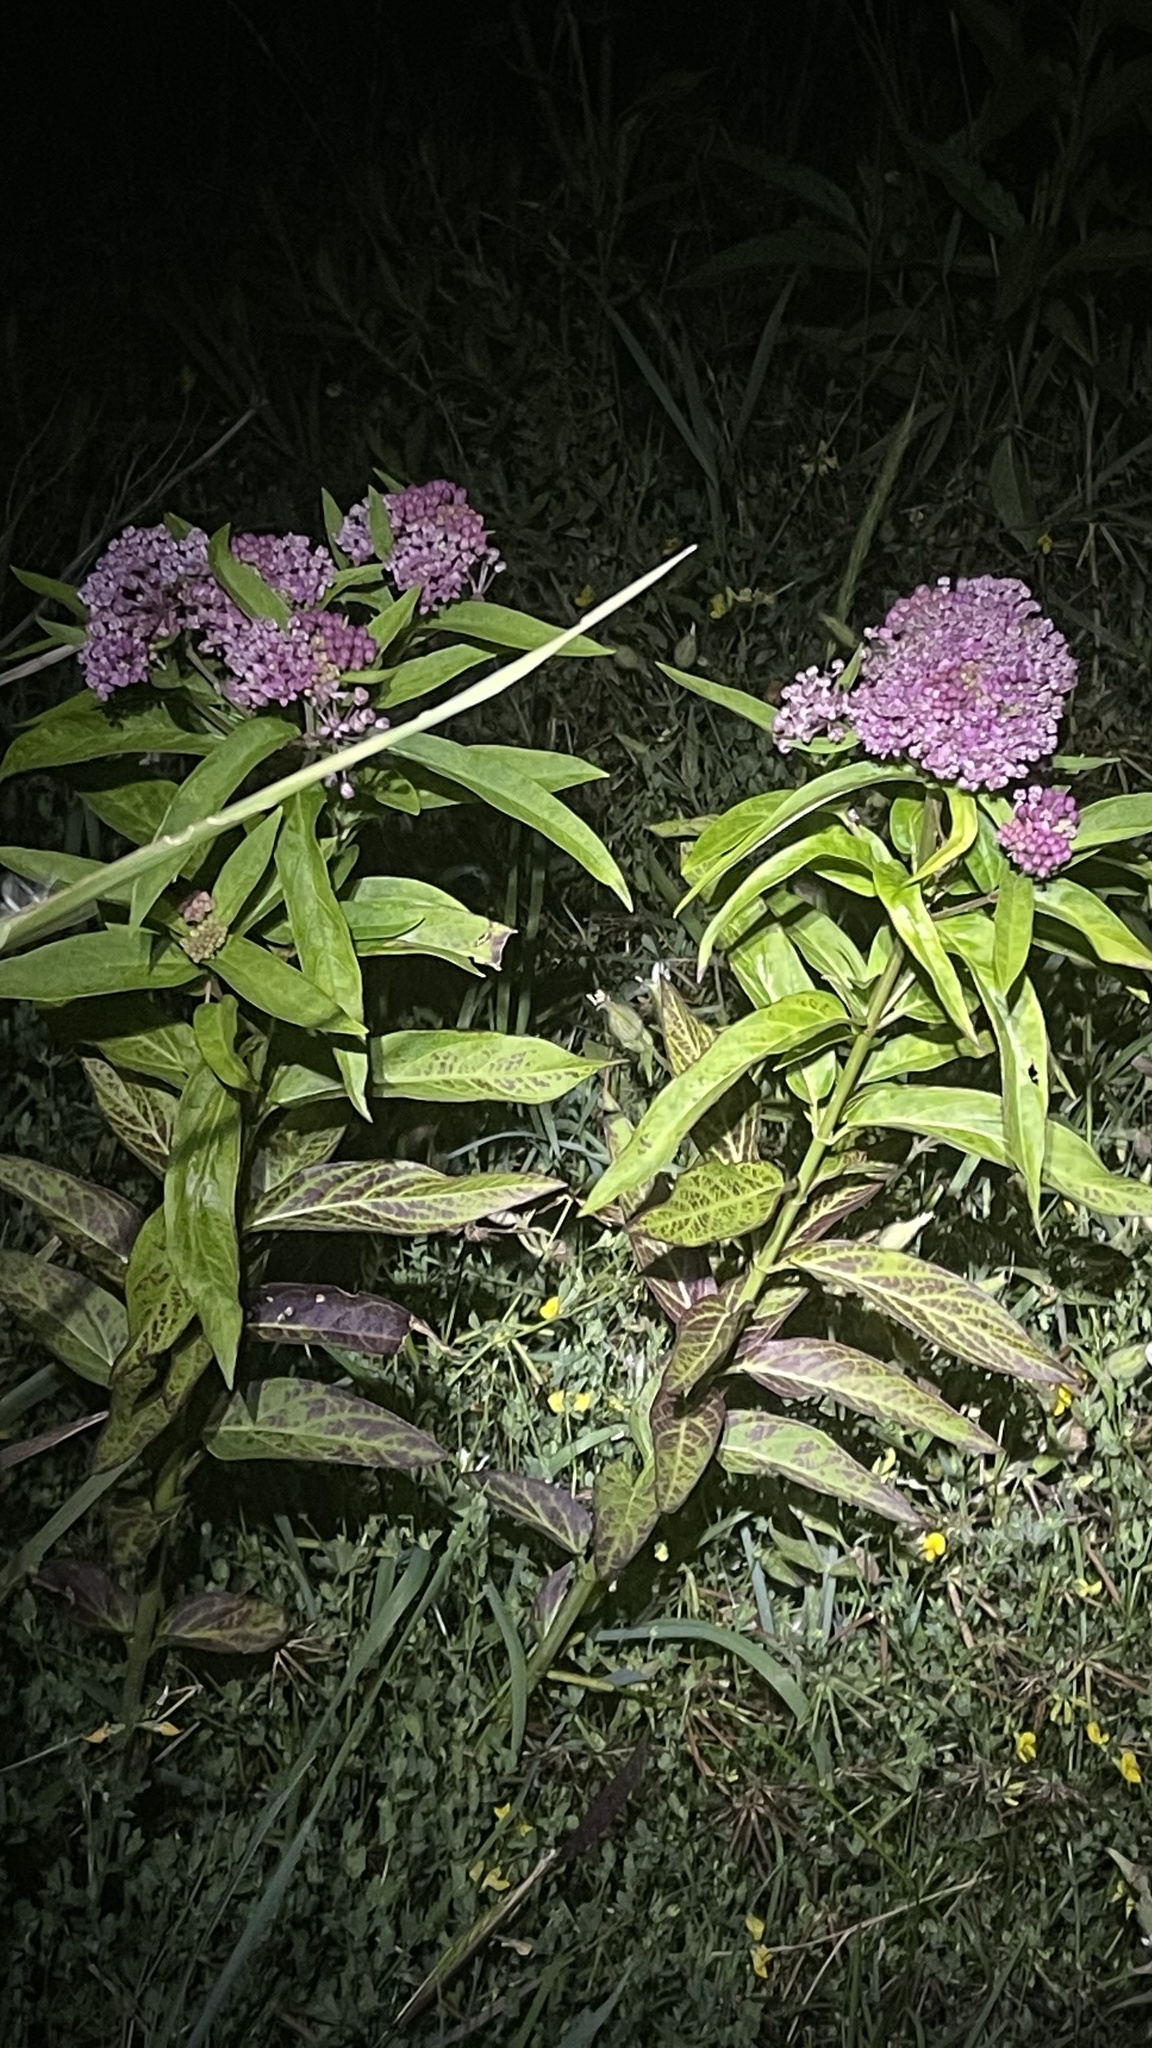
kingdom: Plantae
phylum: Tracheophyta
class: Magnoliopsida
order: Gentianales
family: Apocynaceae
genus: Asclepias
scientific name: Asclepias incarnata
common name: Swamp milkweed
